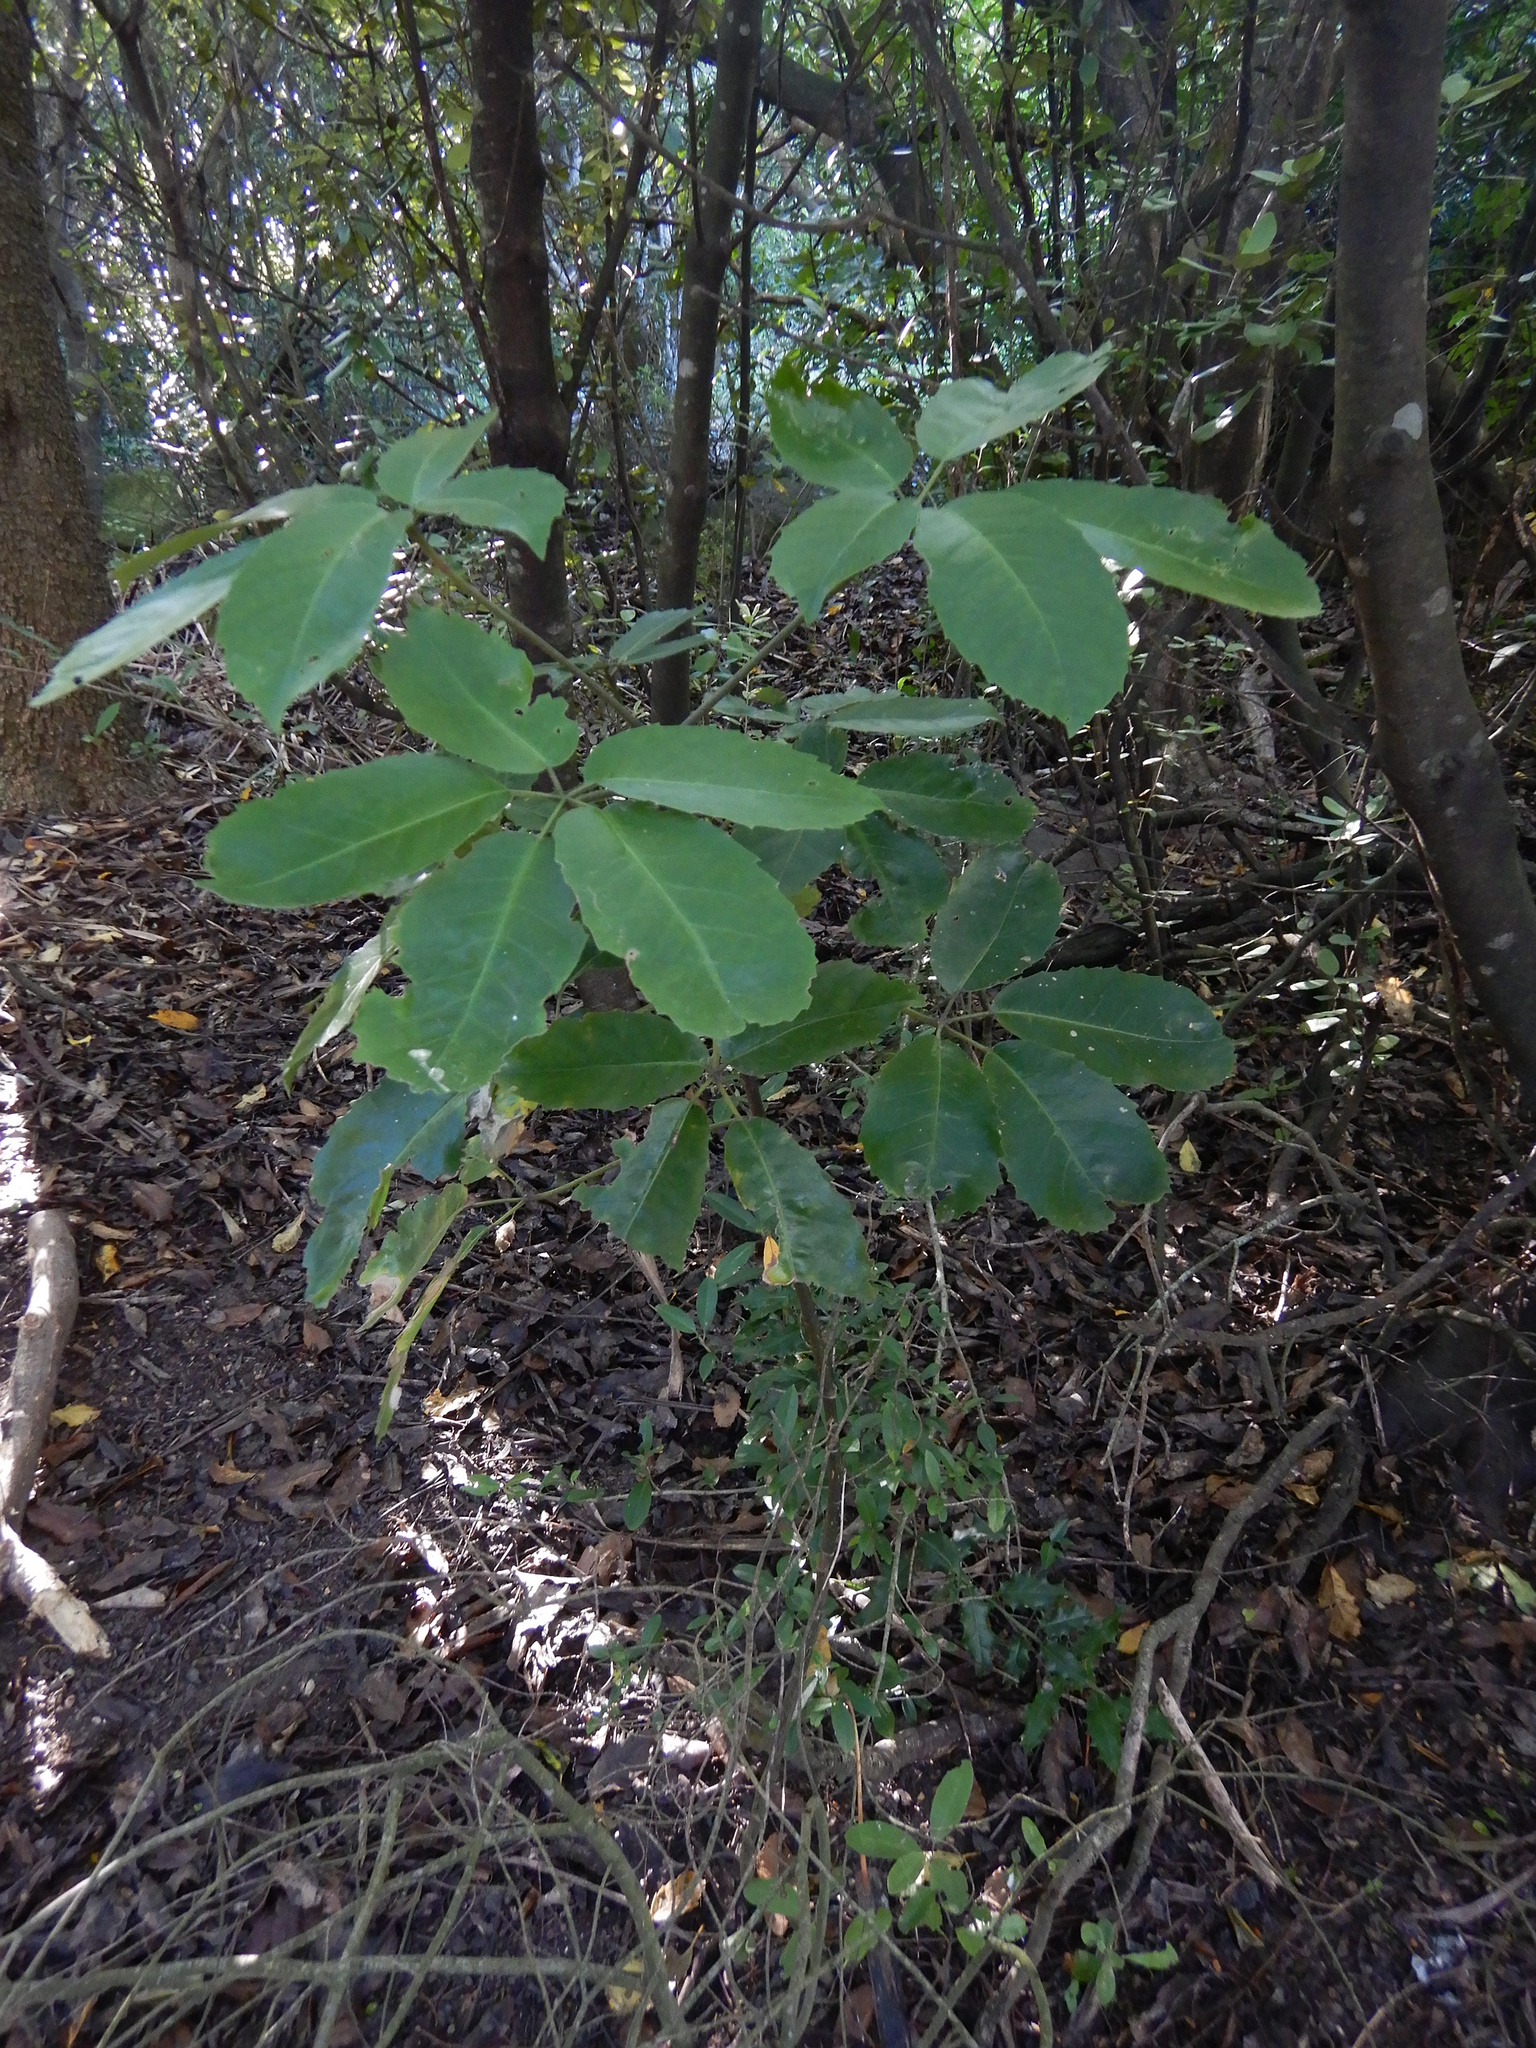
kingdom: Plantae
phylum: Tracheophyta
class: Magnoliopsida
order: Apiales
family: Araliaceae
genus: Neopanax
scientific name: Neopanax arboreus
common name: Five-fingers
